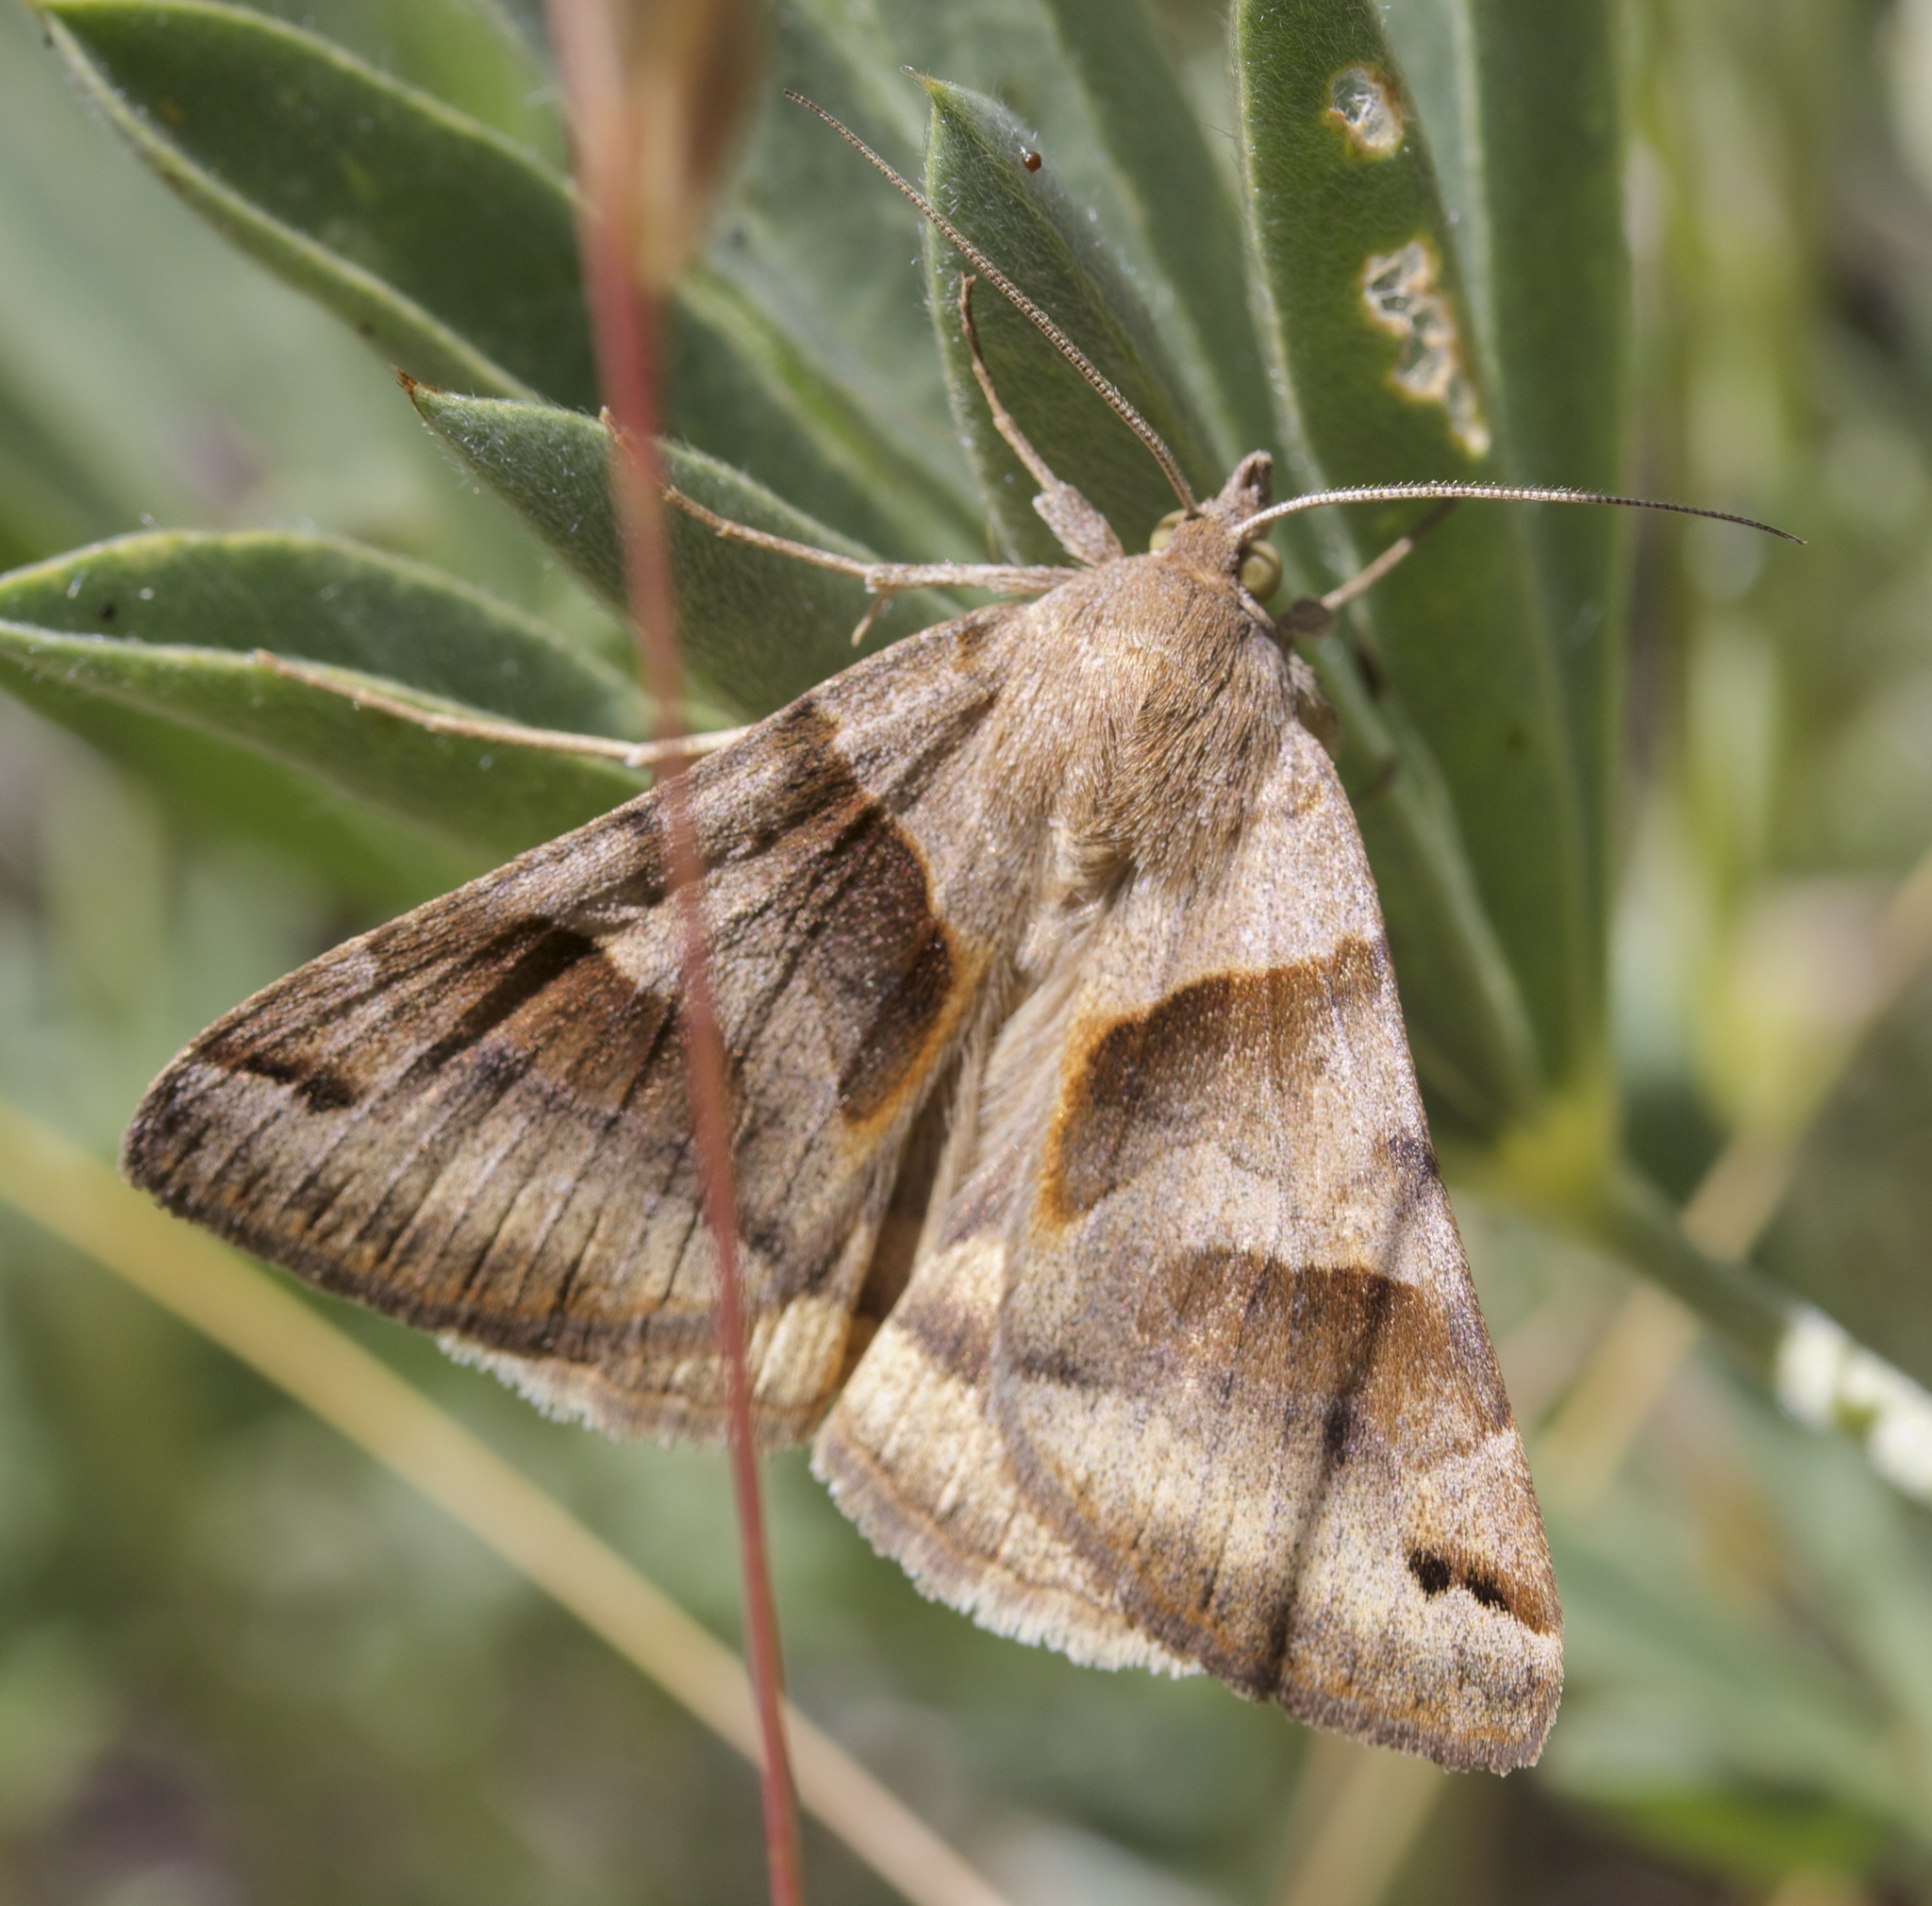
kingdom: Animalia
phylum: Arthropoda
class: Insecta
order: Lepidoptera
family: Erebidae
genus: Caenurgina
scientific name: Caenurgina erechtea
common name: Forage looper moth
